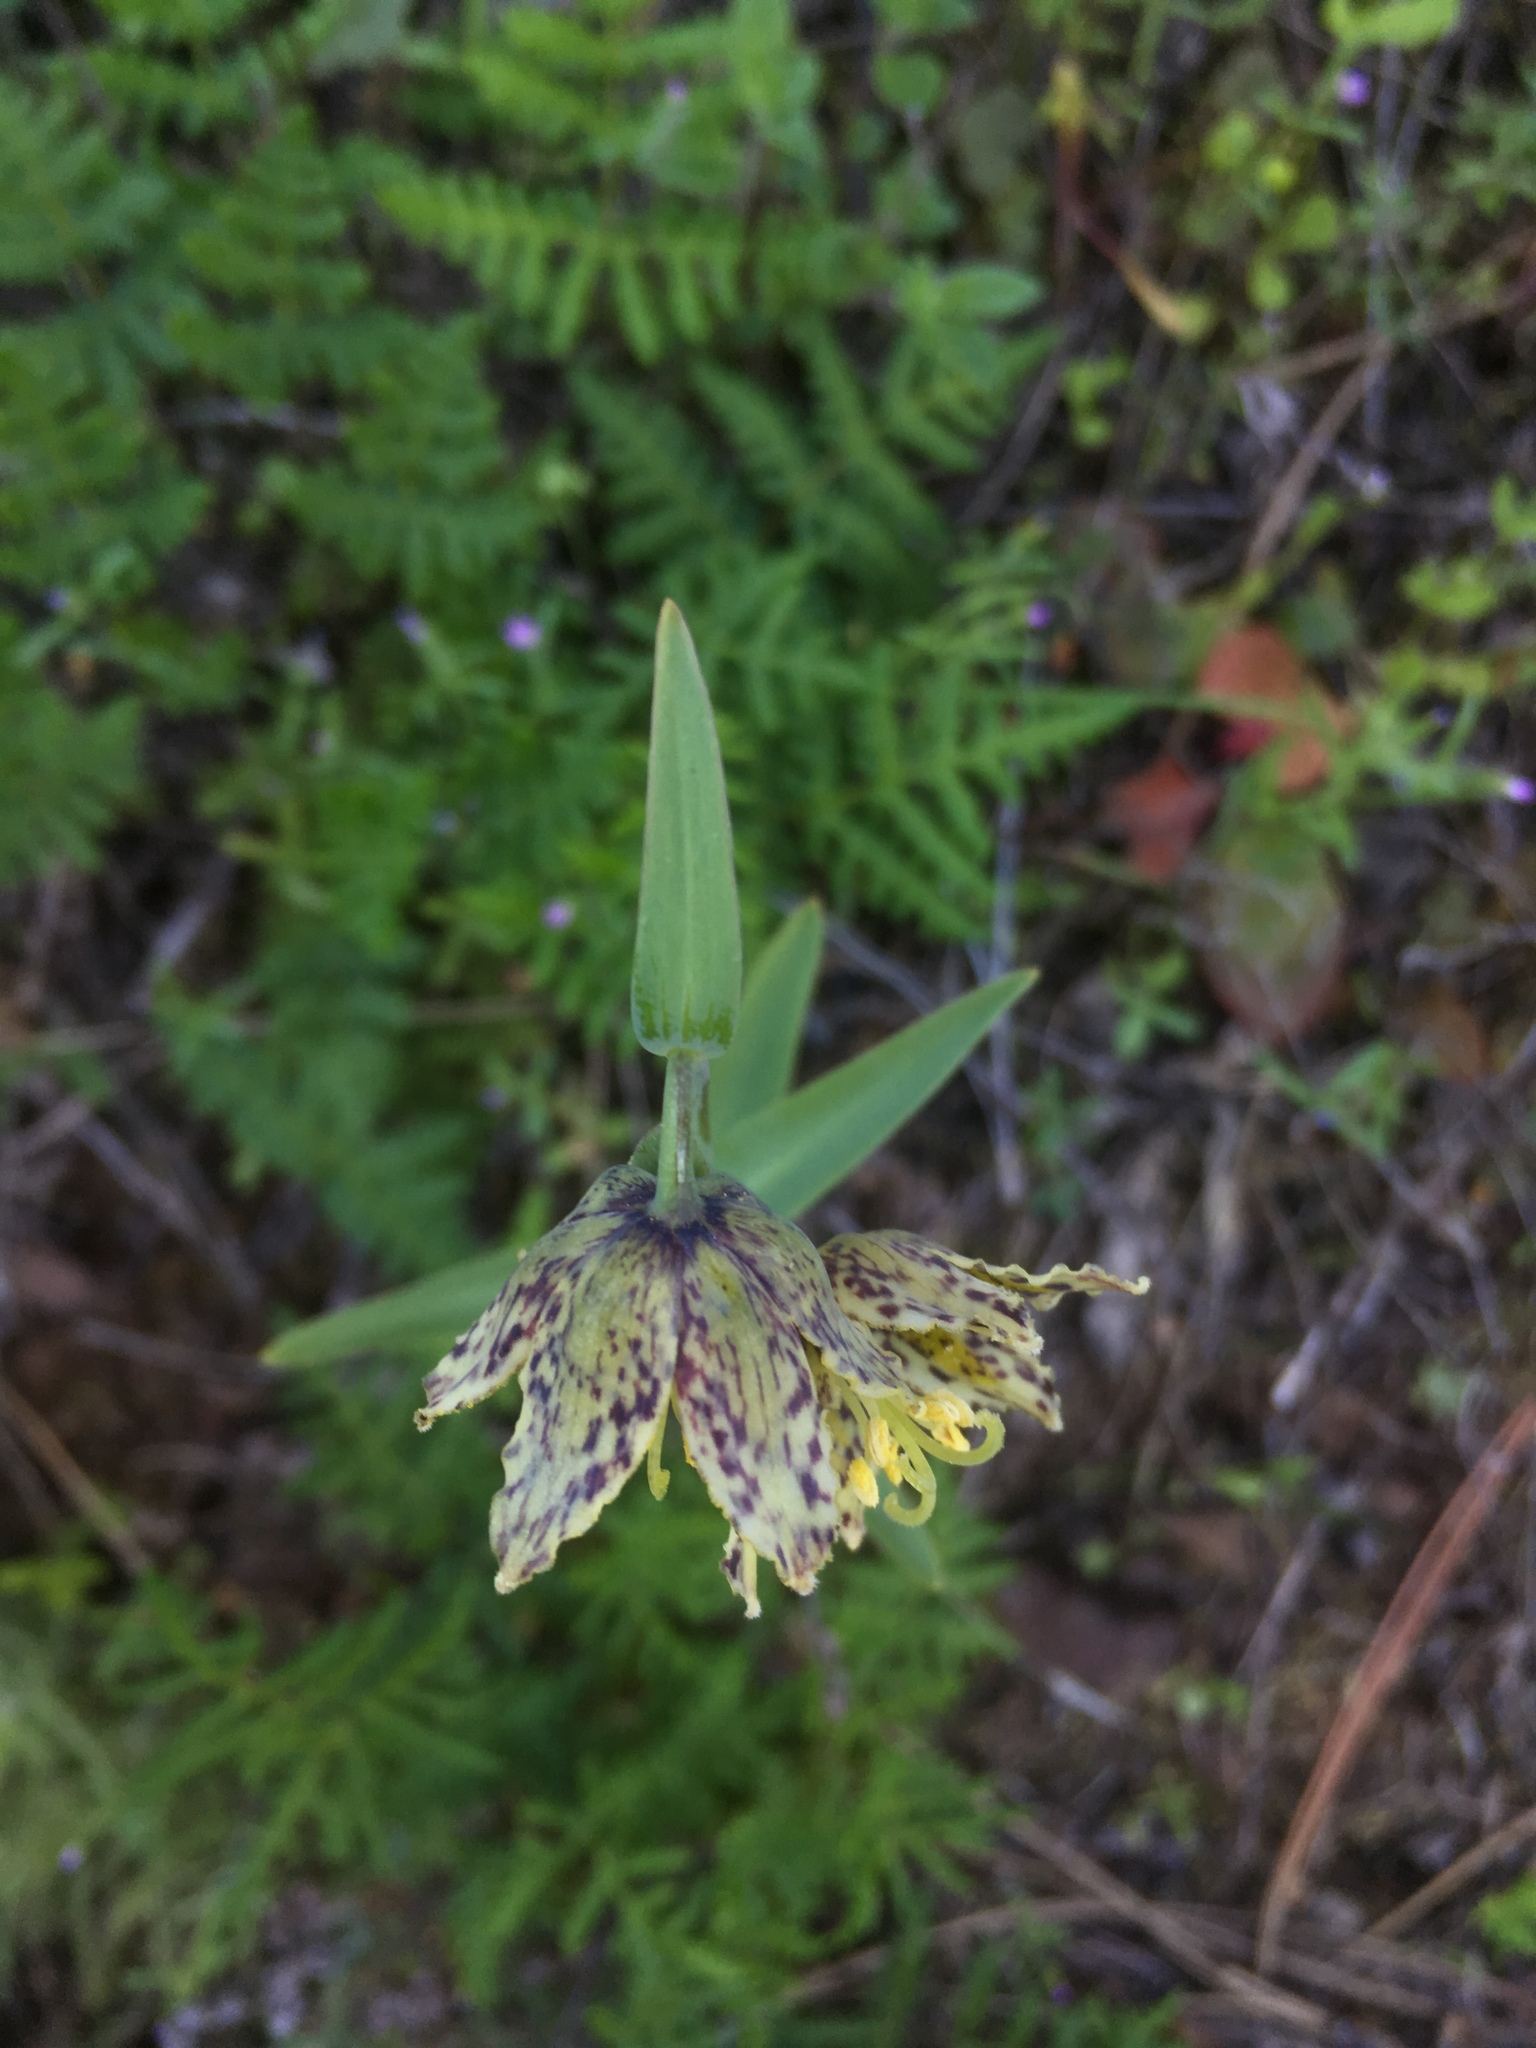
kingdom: Plantae
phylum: Tracheophyta
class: Liliopsida
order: Liliales
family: Liliaceae
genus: Fritillaria
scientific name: Fritillaria affinis
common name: Ojai fritillary
